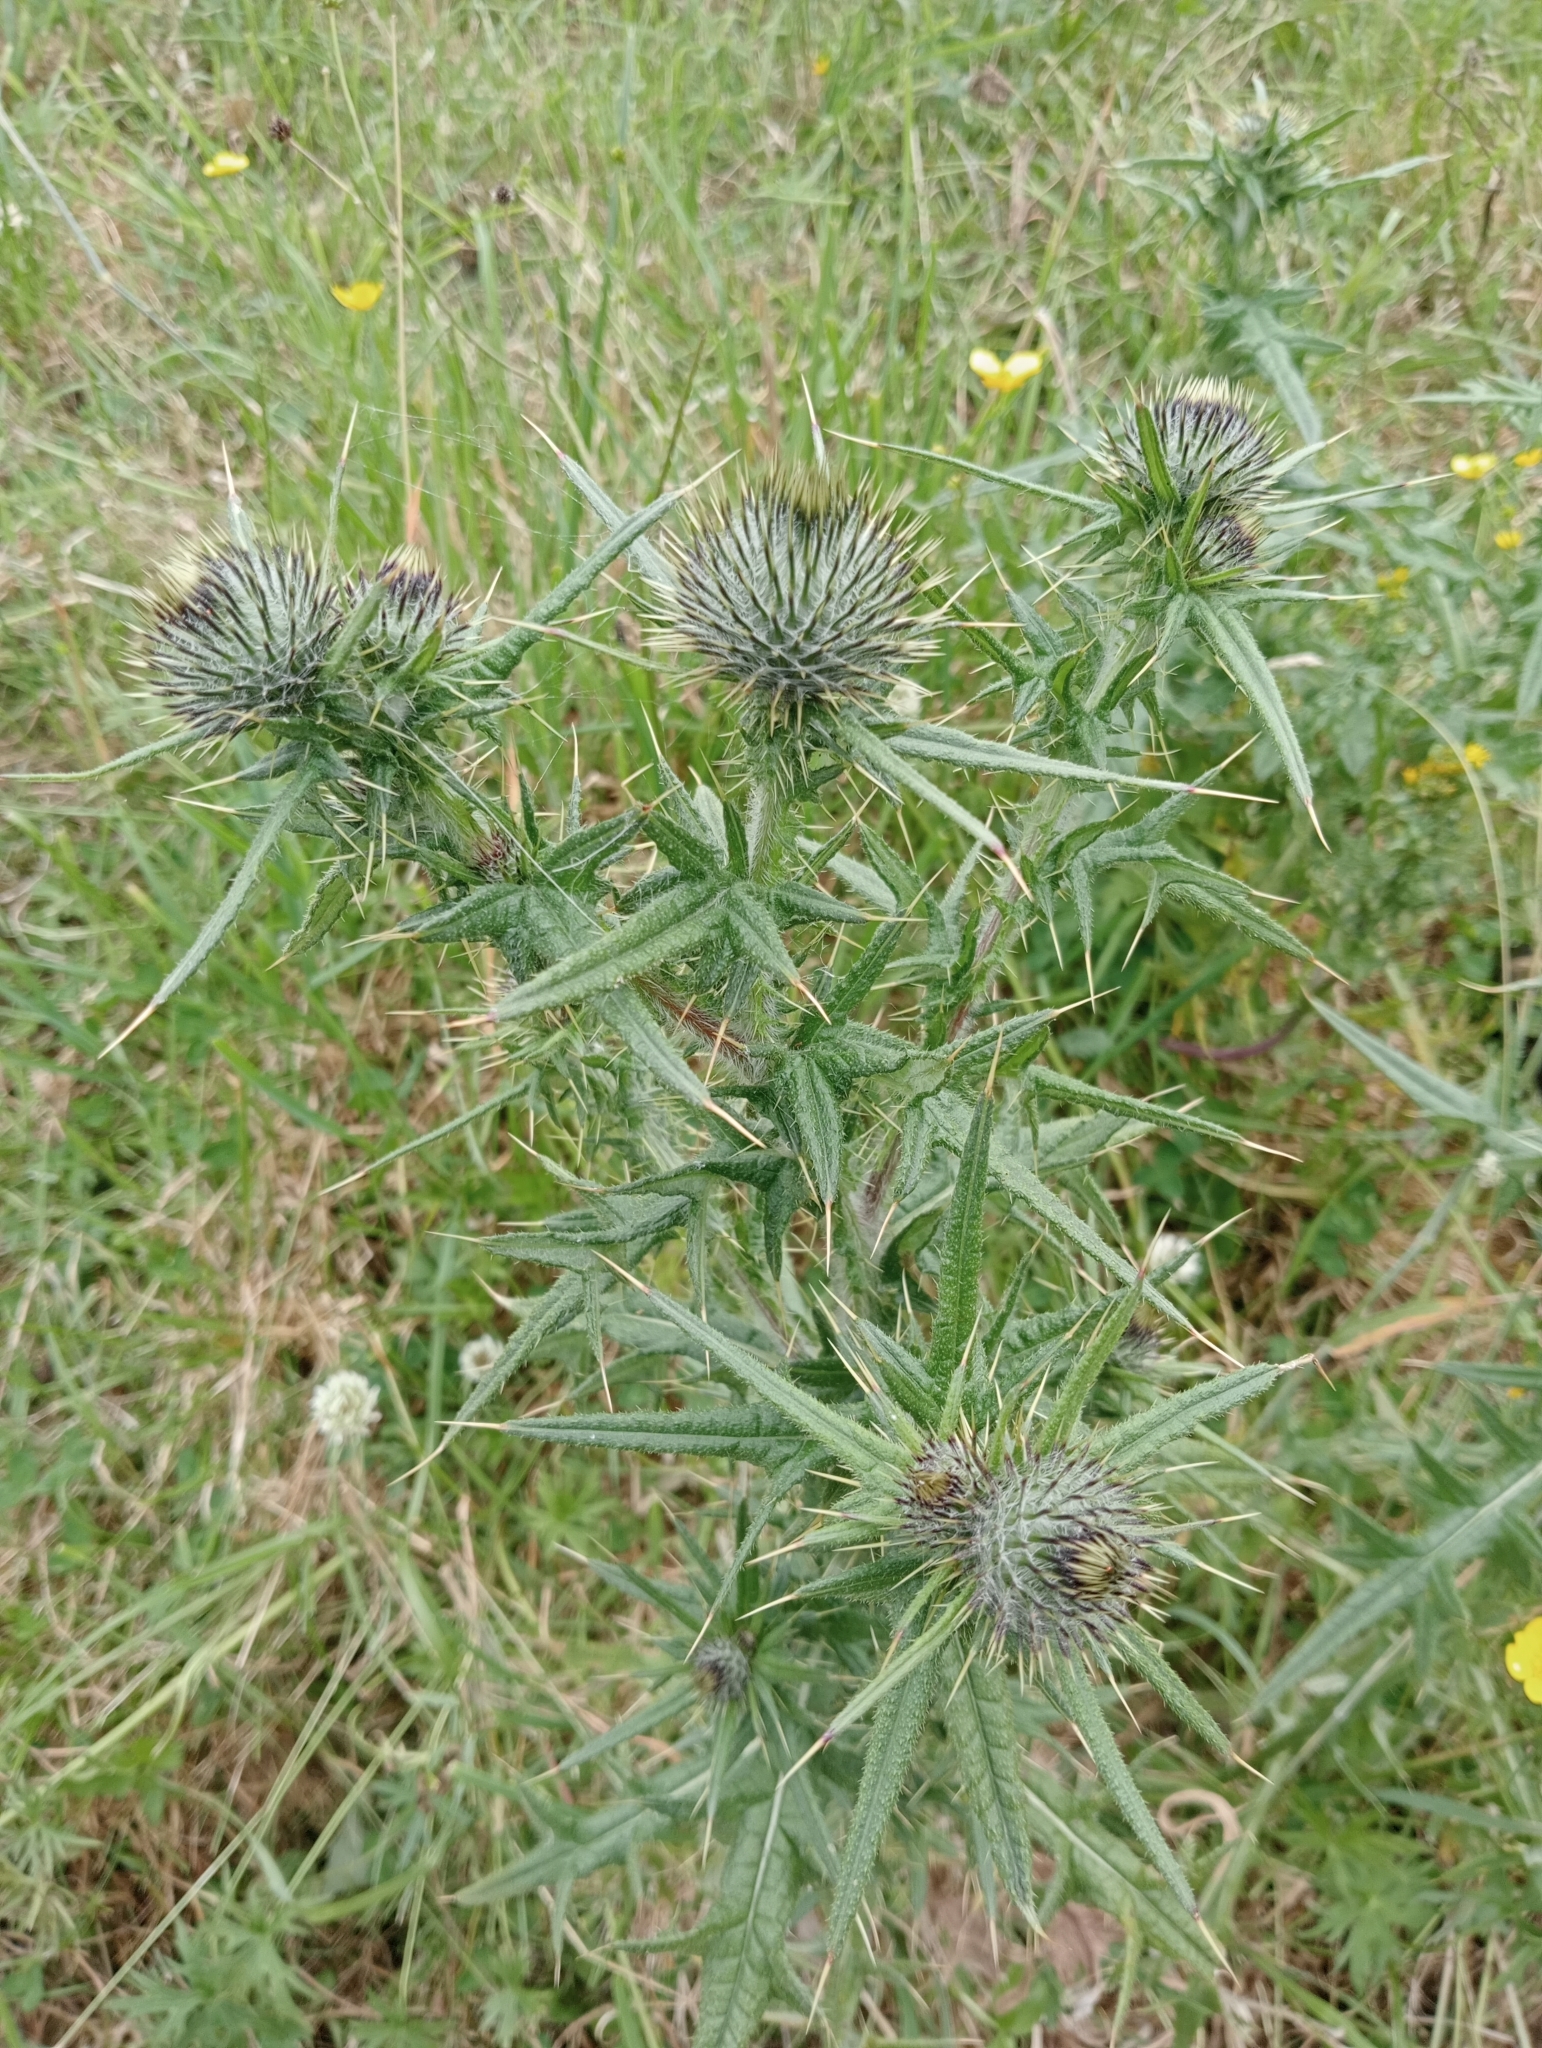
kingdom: Plantae
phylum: Tracheophyta
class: Magnoliopsida
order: Asterales
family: Asteraceae
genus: Cirsium
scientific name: Cirsium vulgare
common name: Bull thistle
